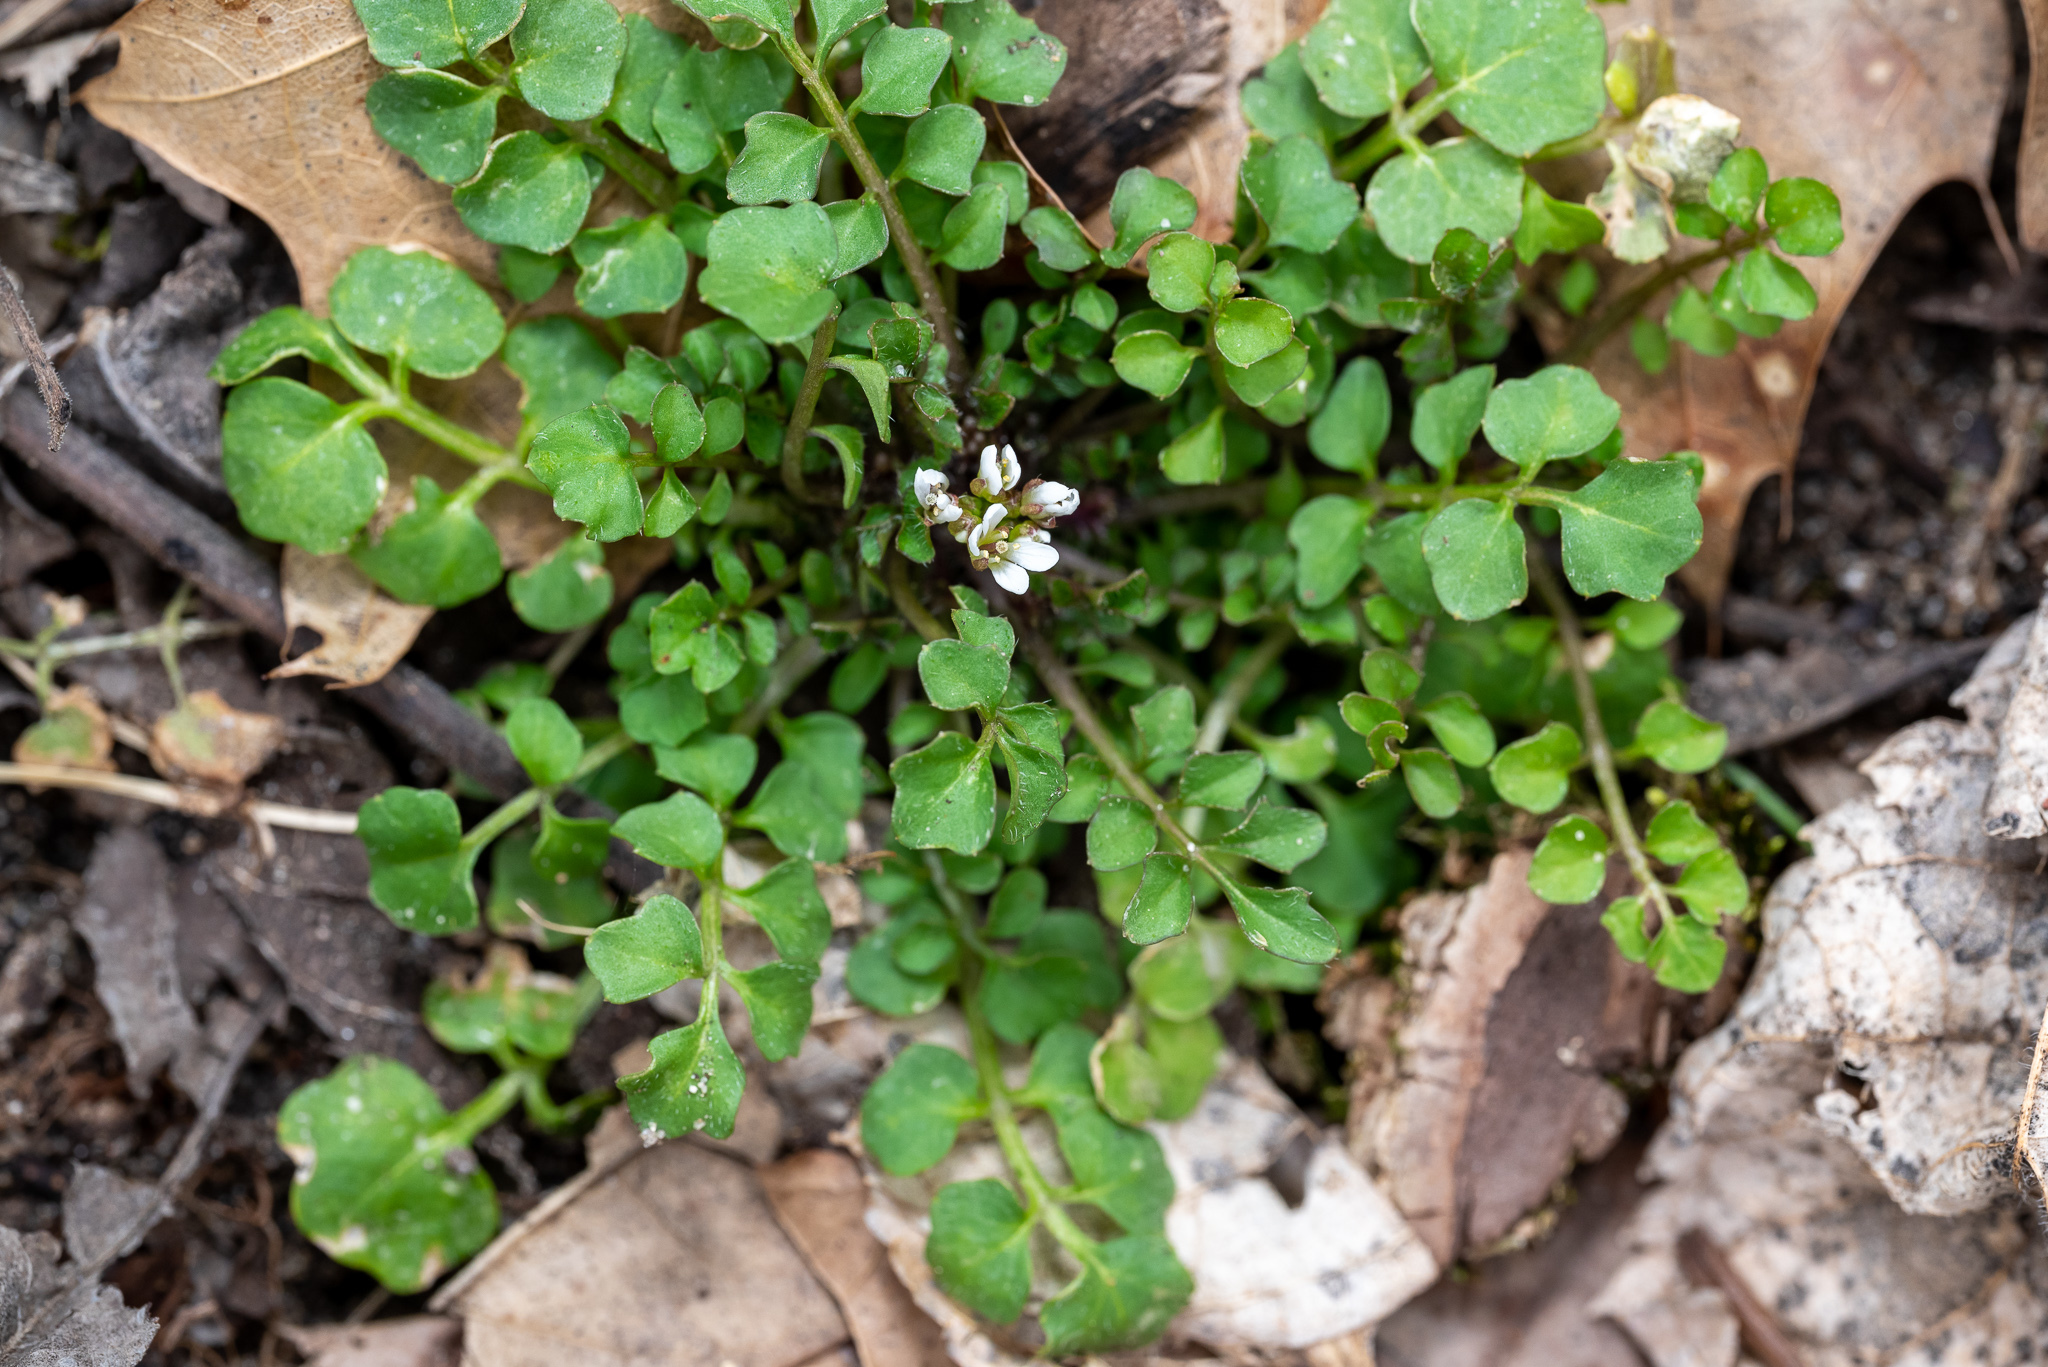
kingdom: Plantae
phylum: Tracheophyta
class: Magnoliopsida
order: Brassicales
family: Brassicaceae
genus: Cardamine
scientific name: Cardamine hirsuta
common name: Hairy bittercress
